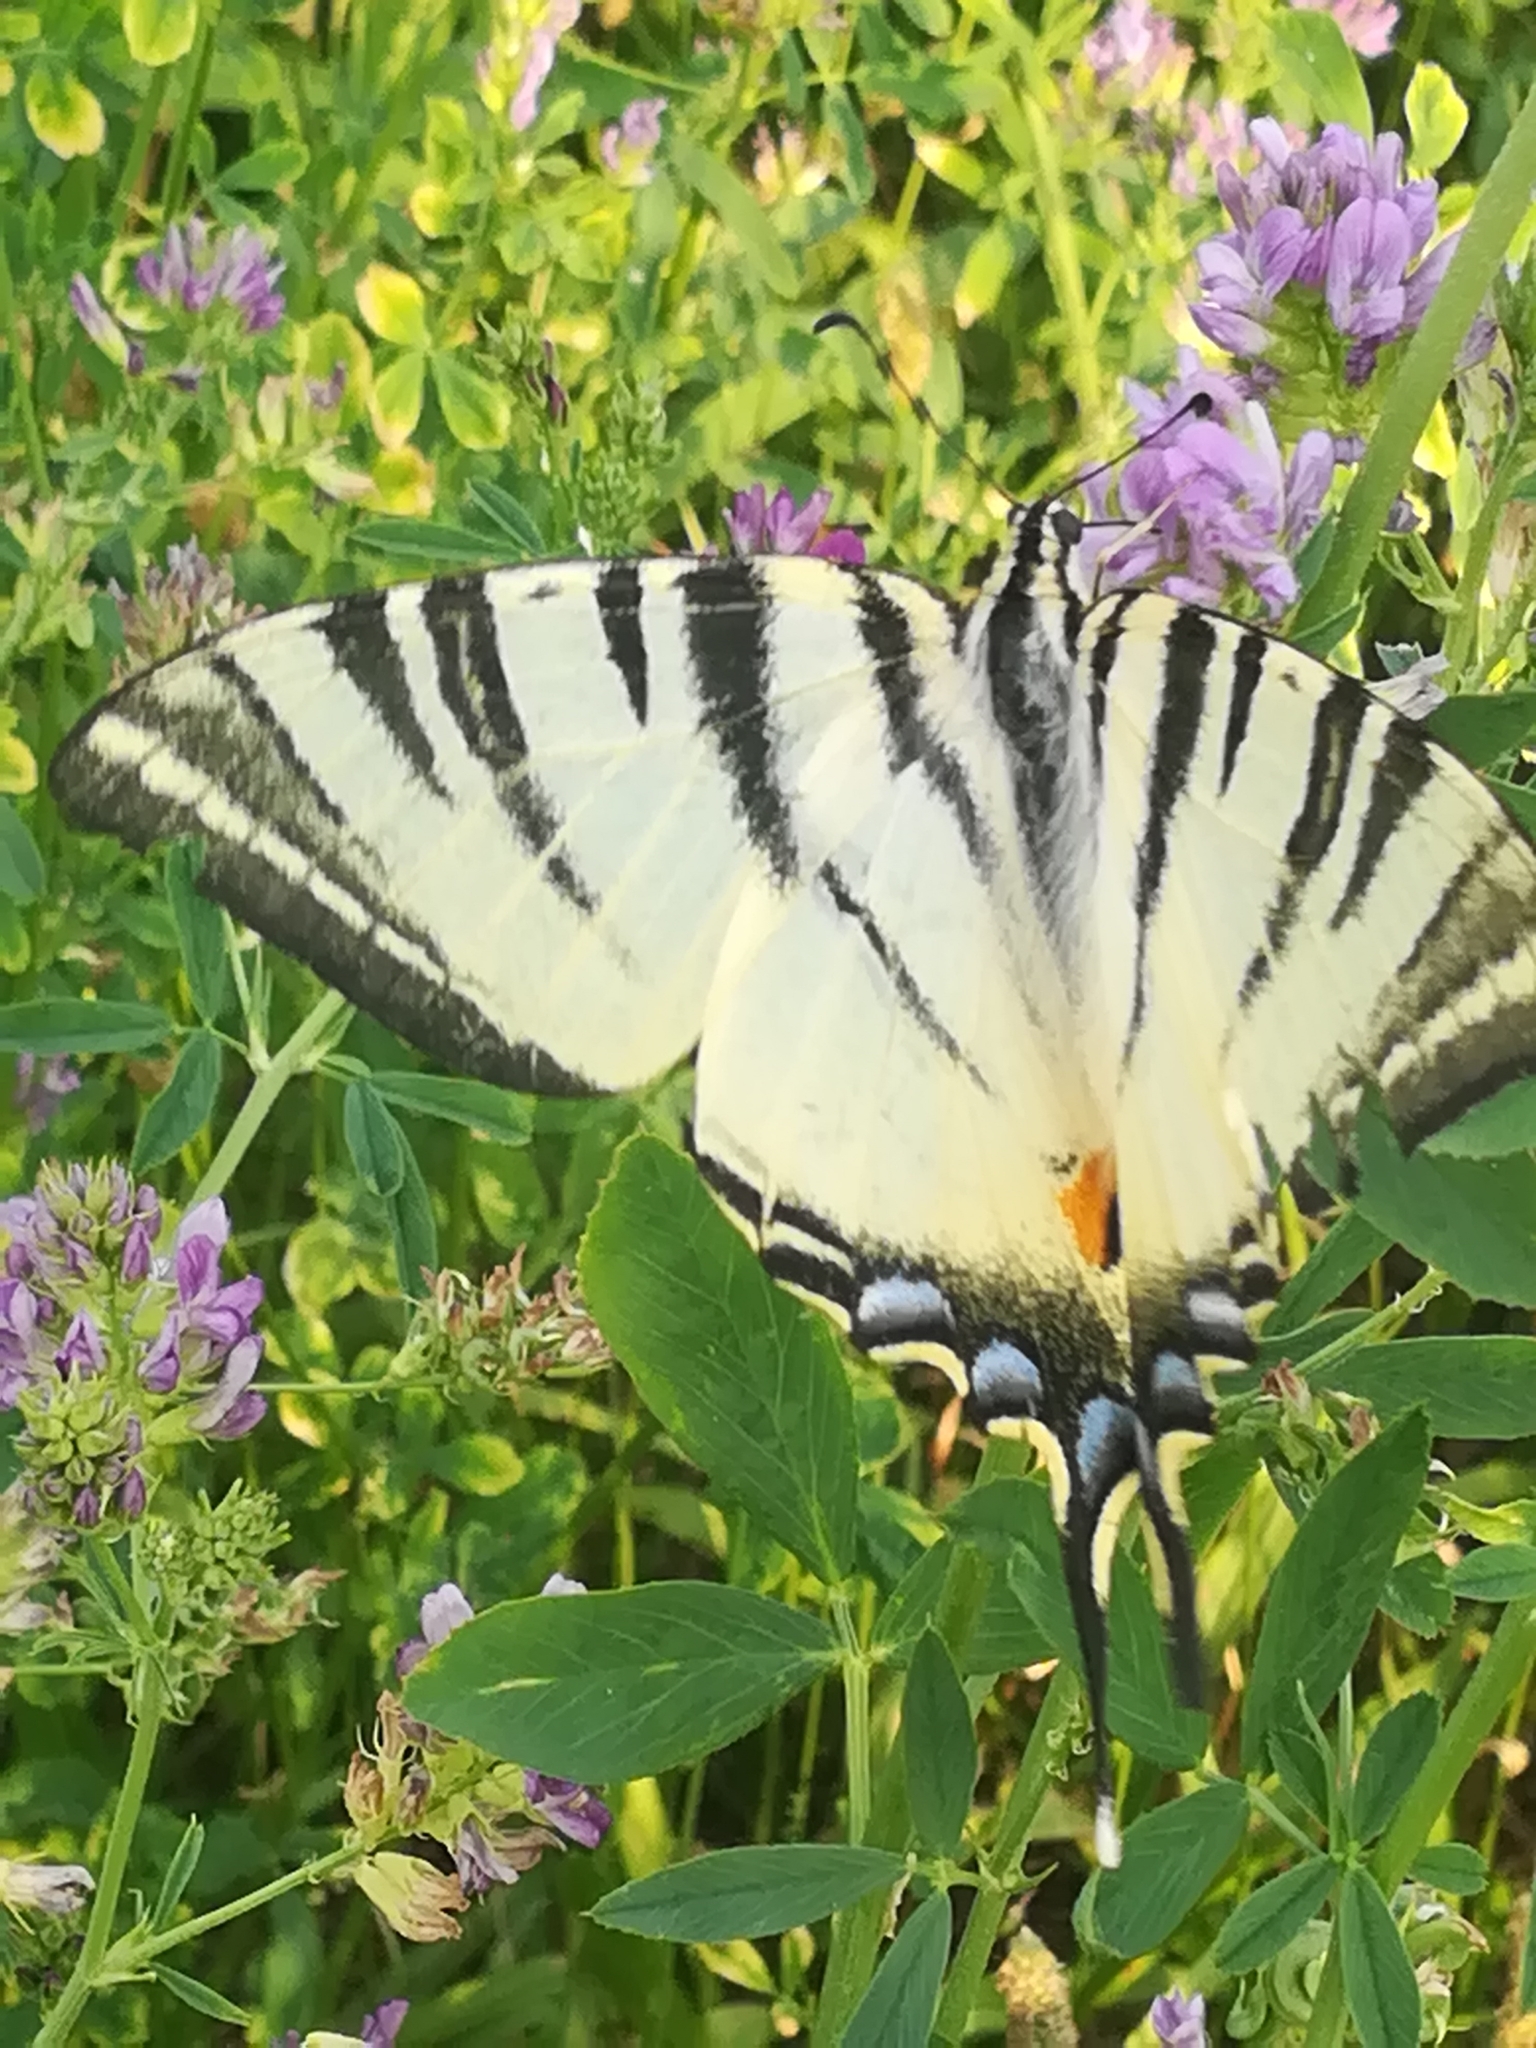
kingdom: Animalia
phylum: Arthropoda
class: Insecta
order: Lepidoptera
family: Papilionidae
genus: Iphiclides
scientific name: Iphiclides podalirius
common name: Scarce swallowtail
